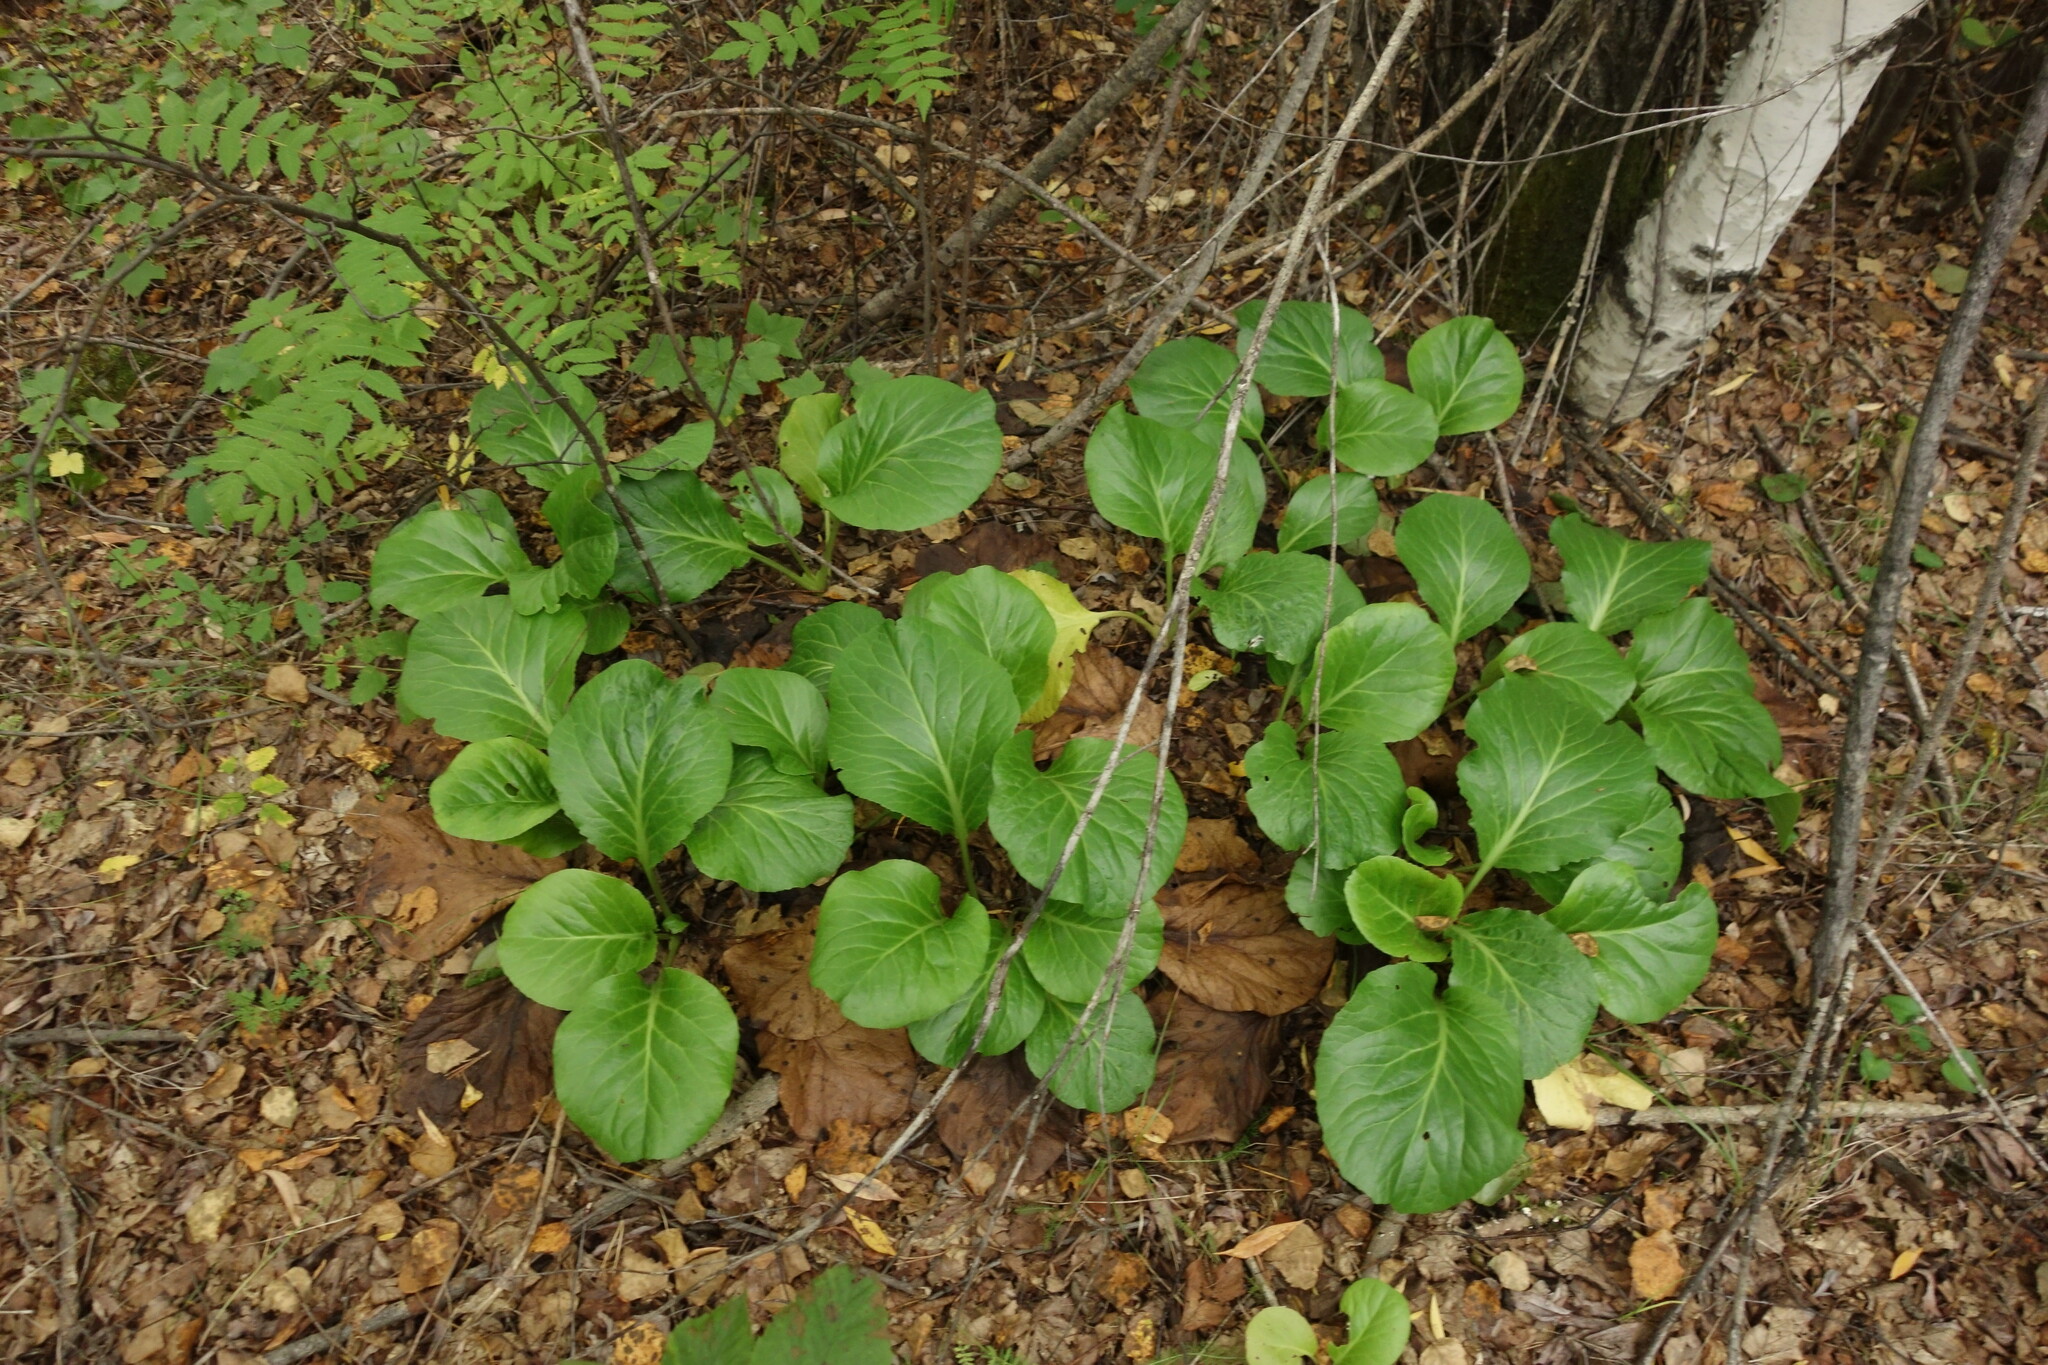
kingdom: Plantae
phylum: Tracheophyta
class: Magnoliopsida
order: Saxifragales
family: Saxifragaceae
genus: Bergenia
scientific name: Bergenia crassifolia
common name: Elephant-ears
